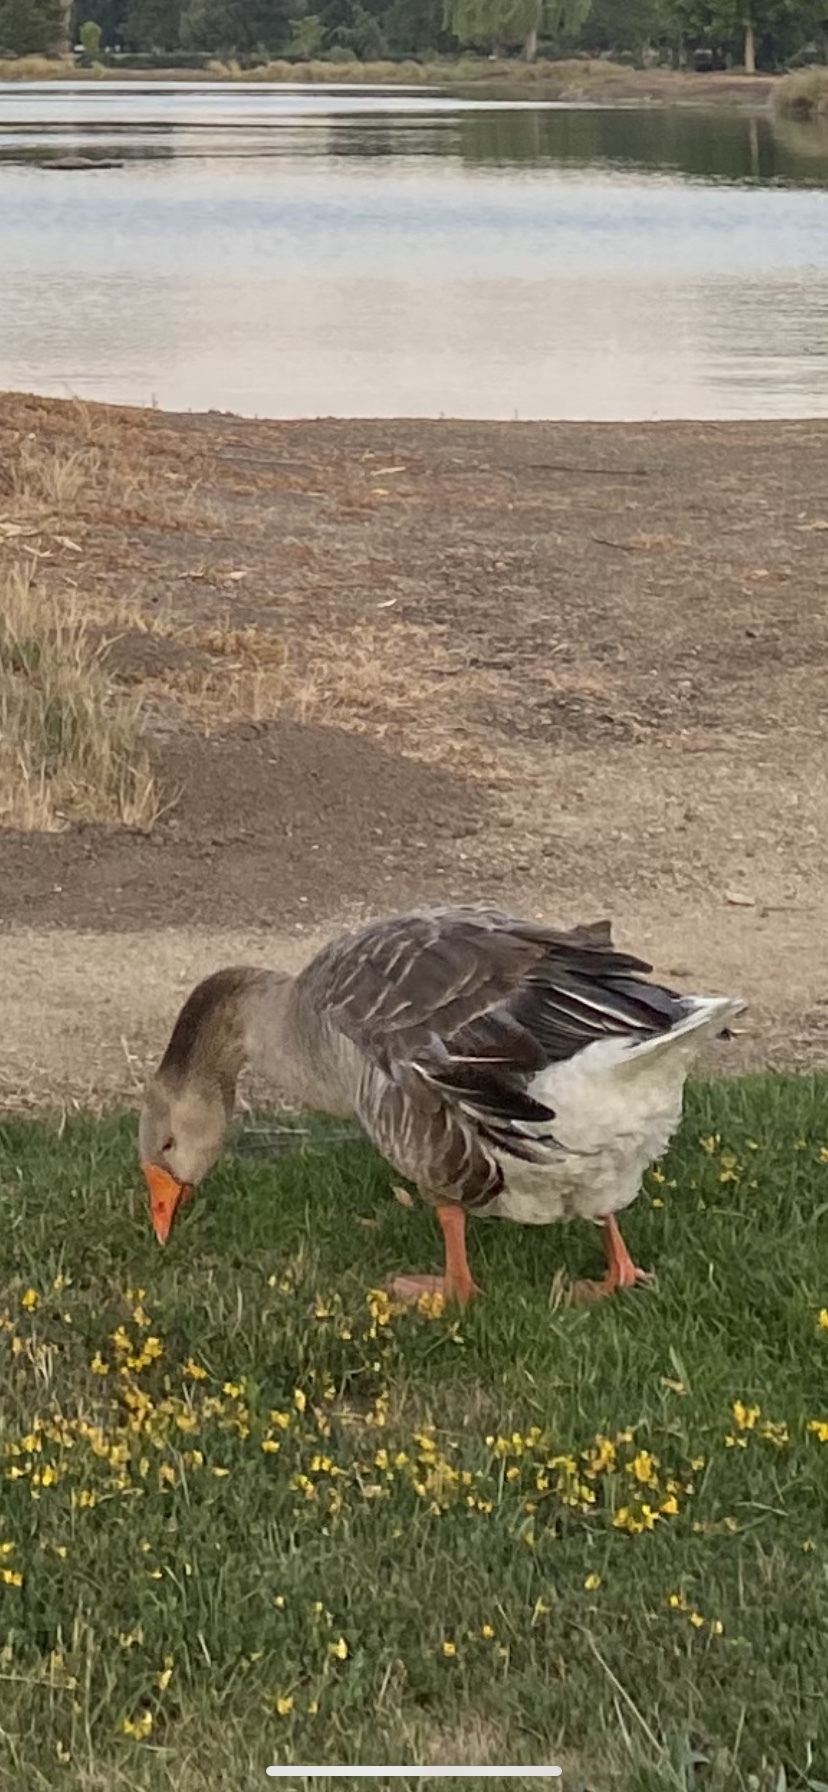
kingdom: Animalia
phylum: Chordata
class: Aves
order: Anseriformes
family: Anatidae
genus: Anser
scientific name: Anser
